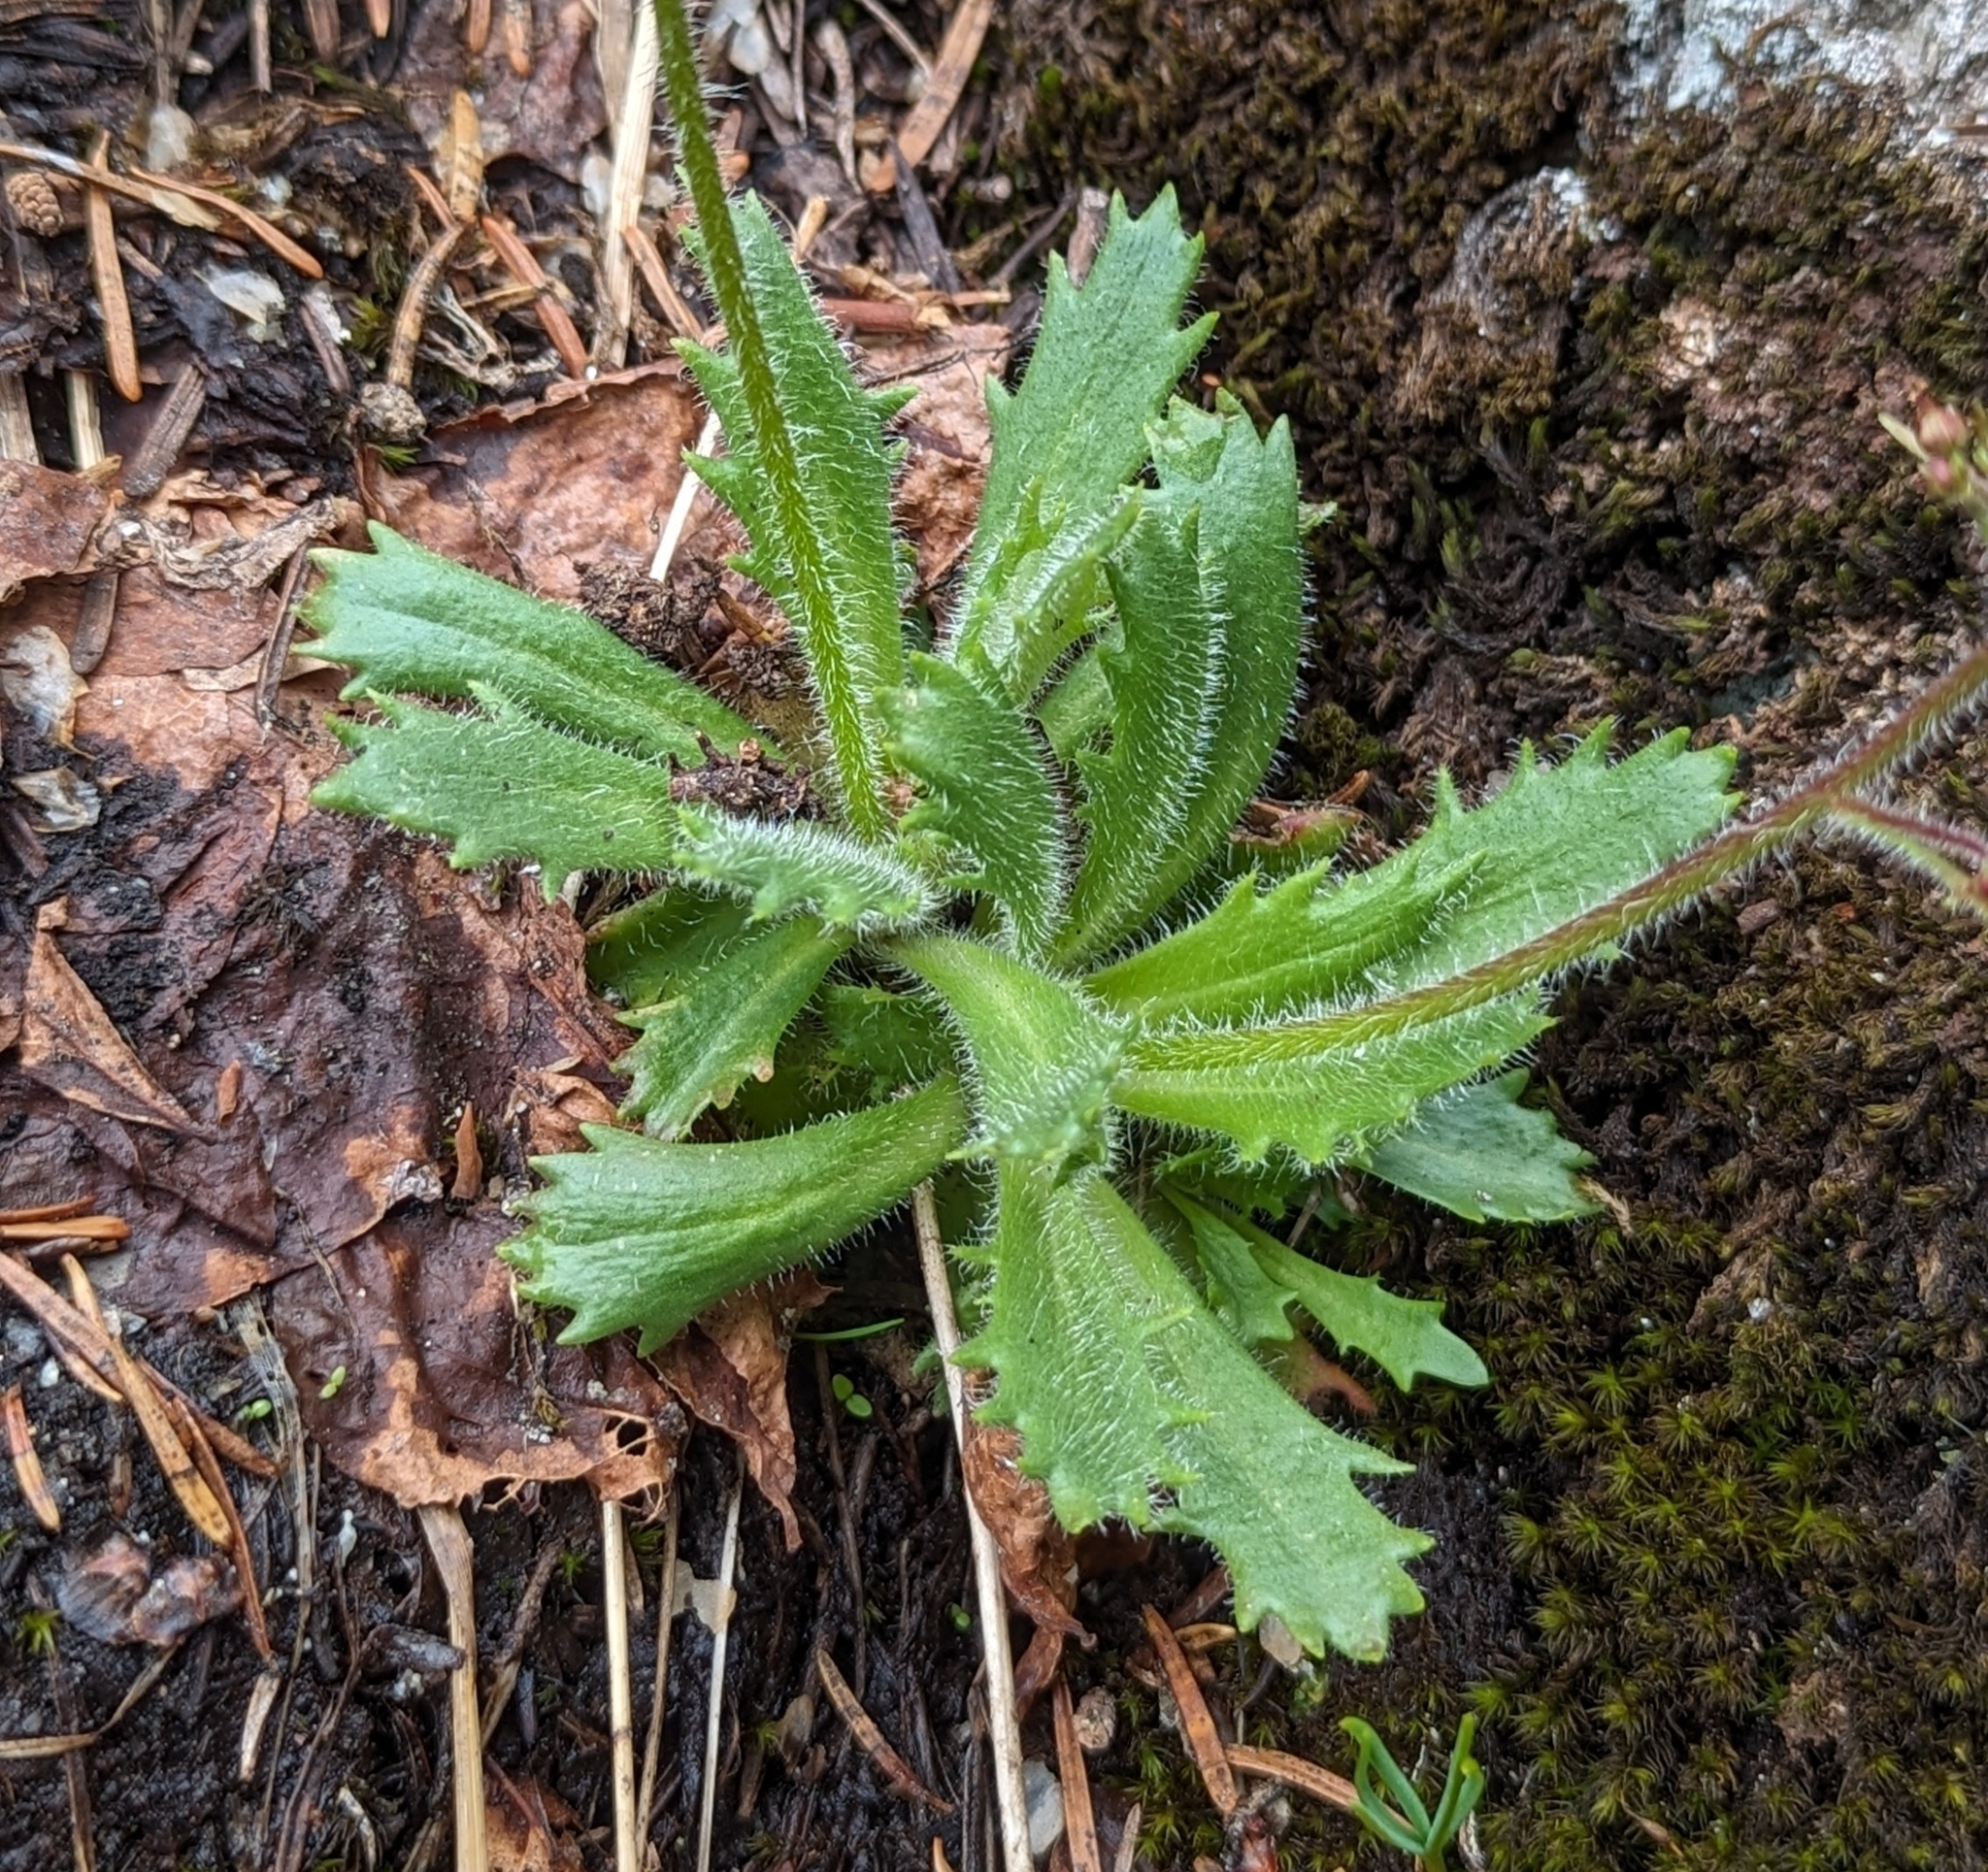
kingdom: Plantae
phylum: Tracheophyta
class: Magnoliopsida
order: Saxifragales
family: Saxifragaceae
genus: Micranthes
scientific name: Micranthes ferruginea
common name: Rusty saxifrage
